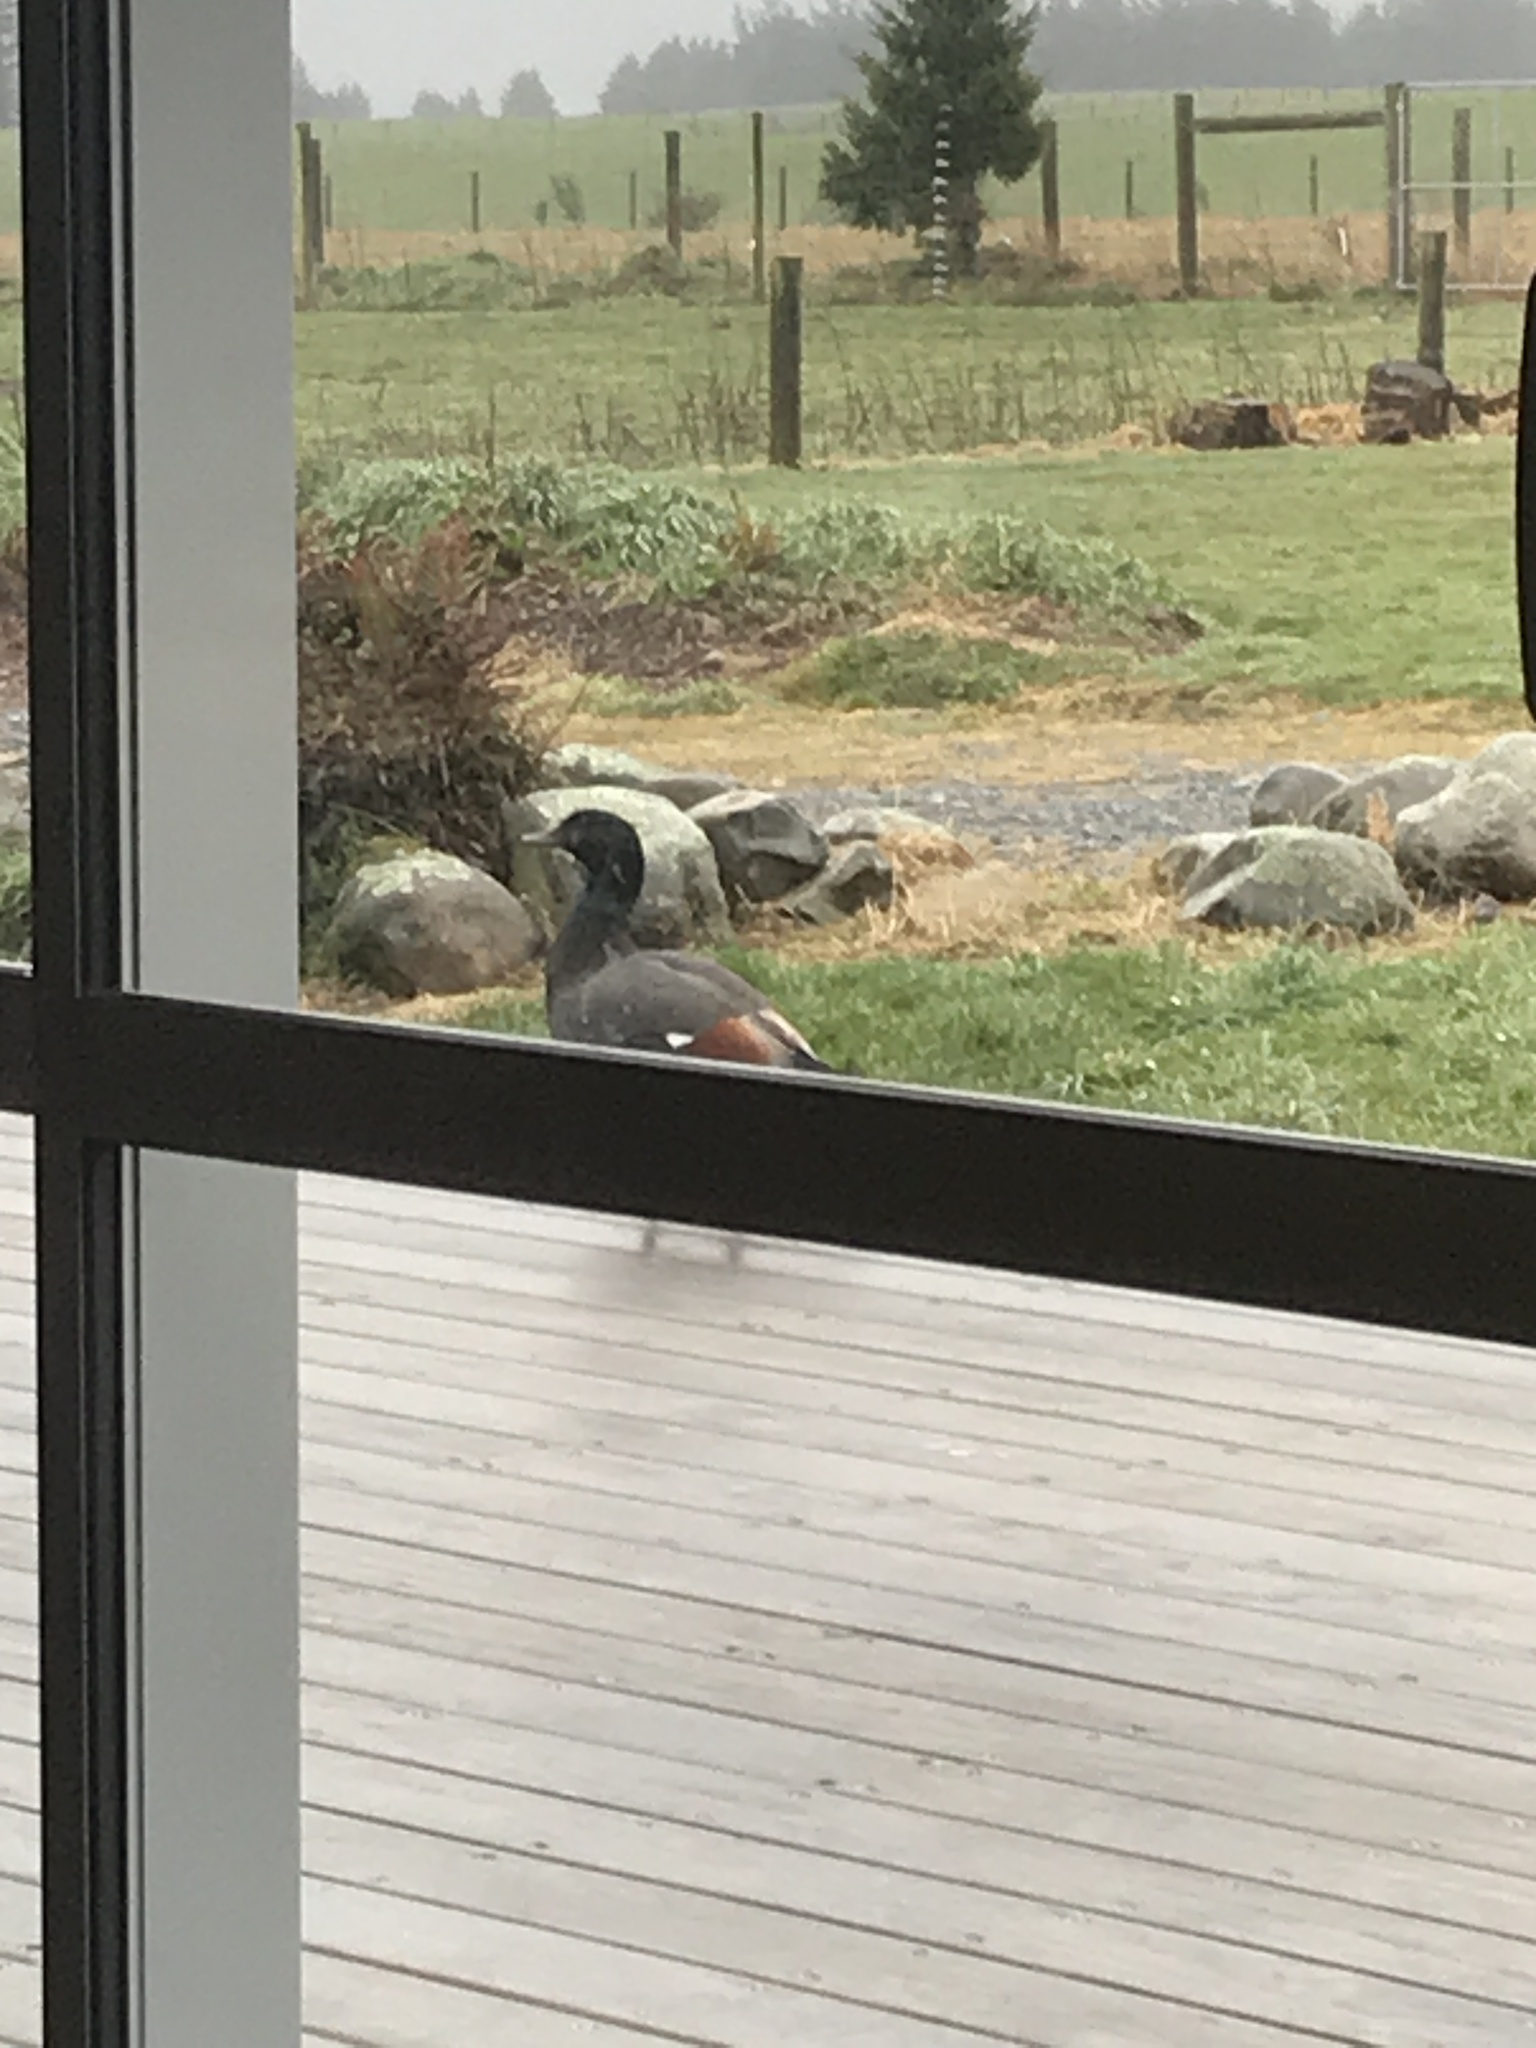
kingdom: Animalia
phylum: Chordata
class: Aves
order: Anseriformes
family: Anatidae
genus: Tadorna
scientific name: Tadorna variegata
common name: Paradise shelduck
